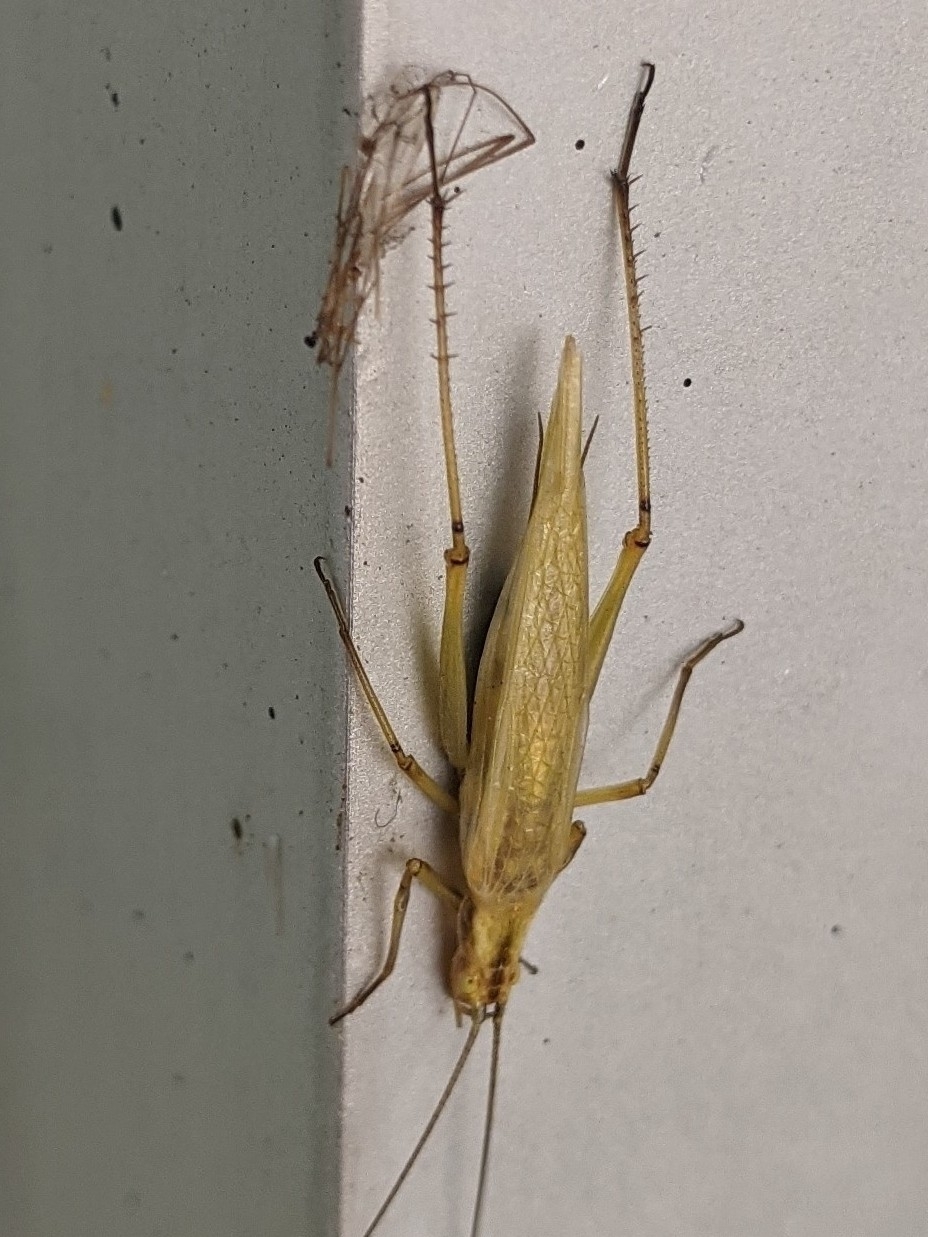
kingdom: Animalia
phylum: Arthropoda
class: Insecta
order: Orthoptera
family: Gryllidae
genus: Oecanthus
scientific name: Oecanthus nigricornis
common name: Black-horned tree cricket
